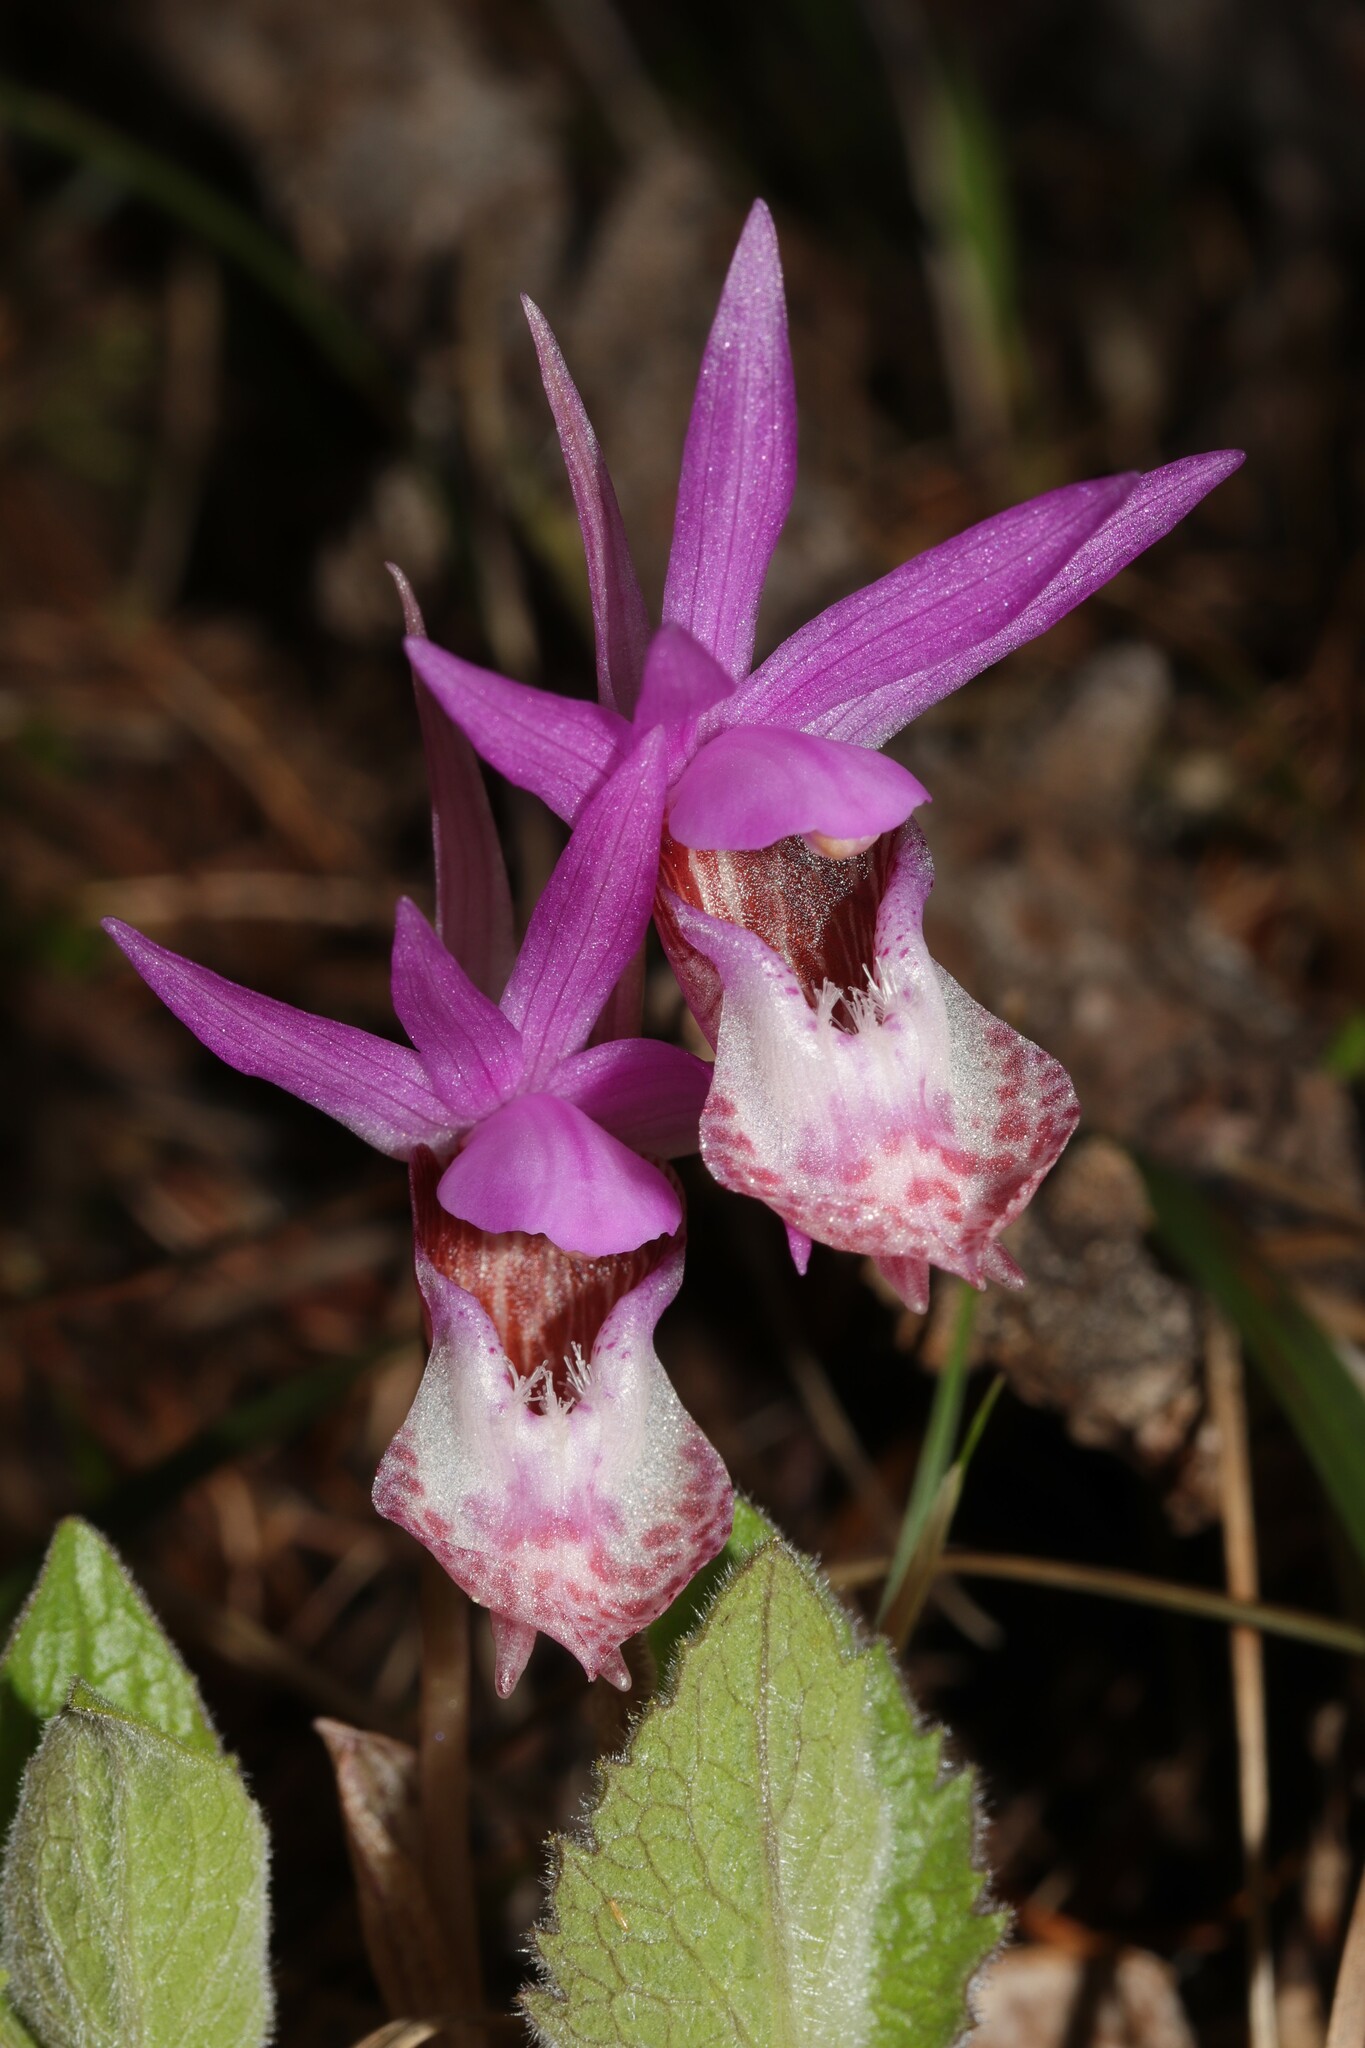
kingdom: Plantae
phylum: Tracheophyta
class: Liliopsida
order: Asparagales
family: Orchidaceae
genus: Calypso
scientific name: Calypso bulbosa
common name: Calypso
